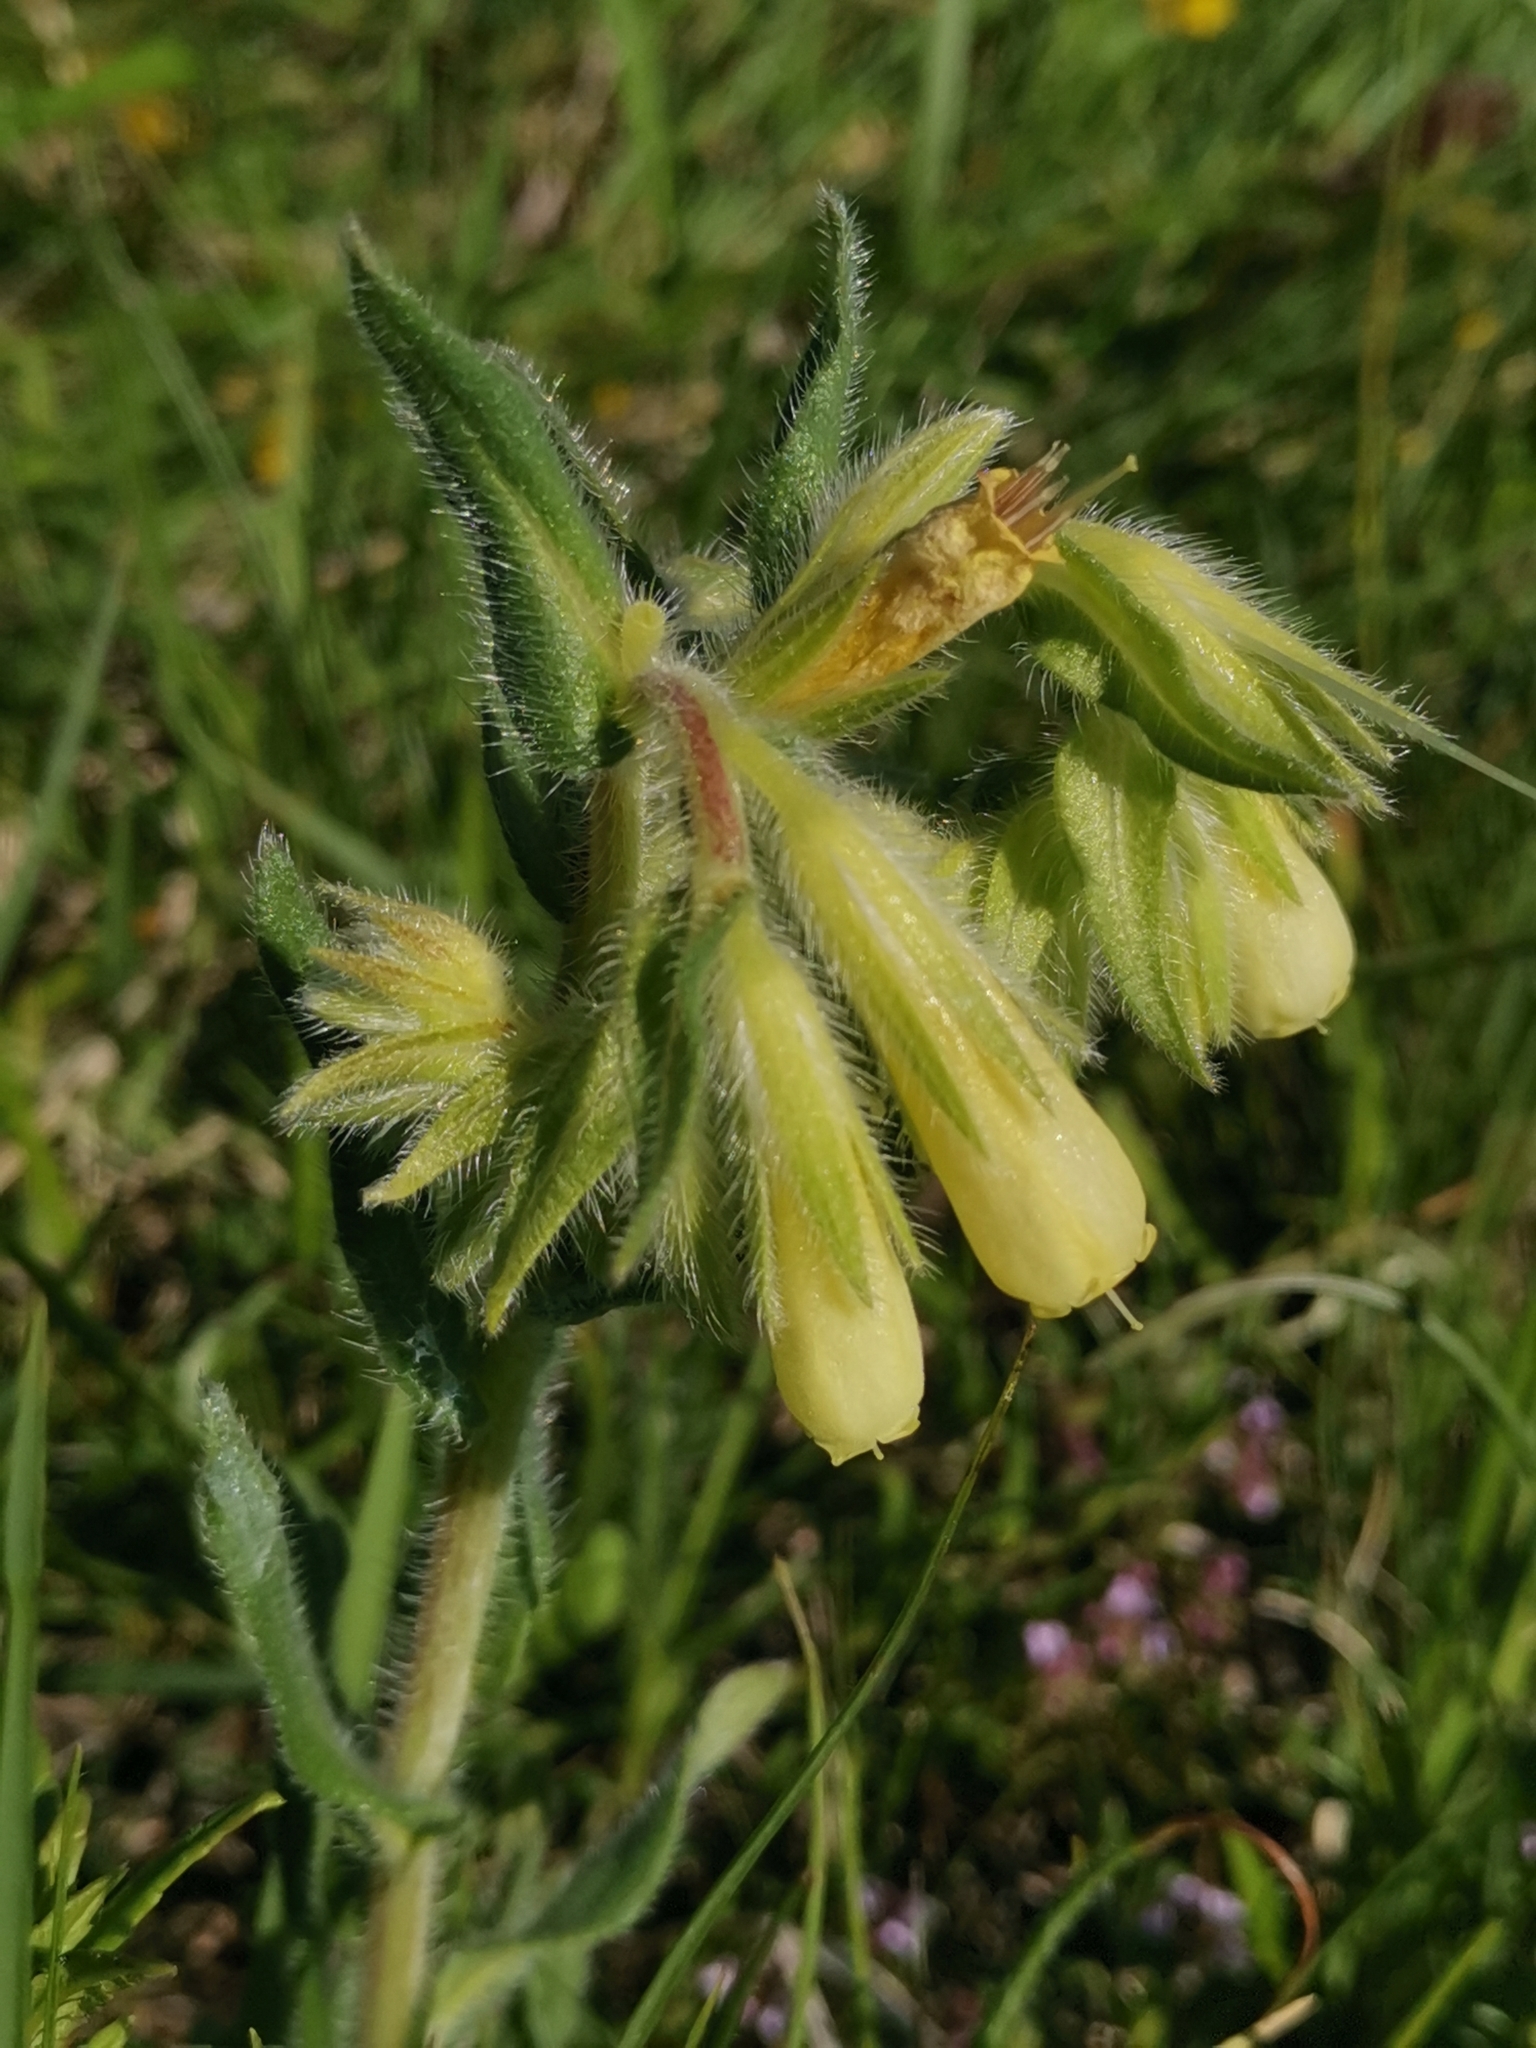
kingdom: Plantae
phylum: Tracheophyta
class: Magnoliopsida
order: Boraginales
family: Boraginaceae
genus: Onosma
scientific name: Onosma pseudoarenaria
